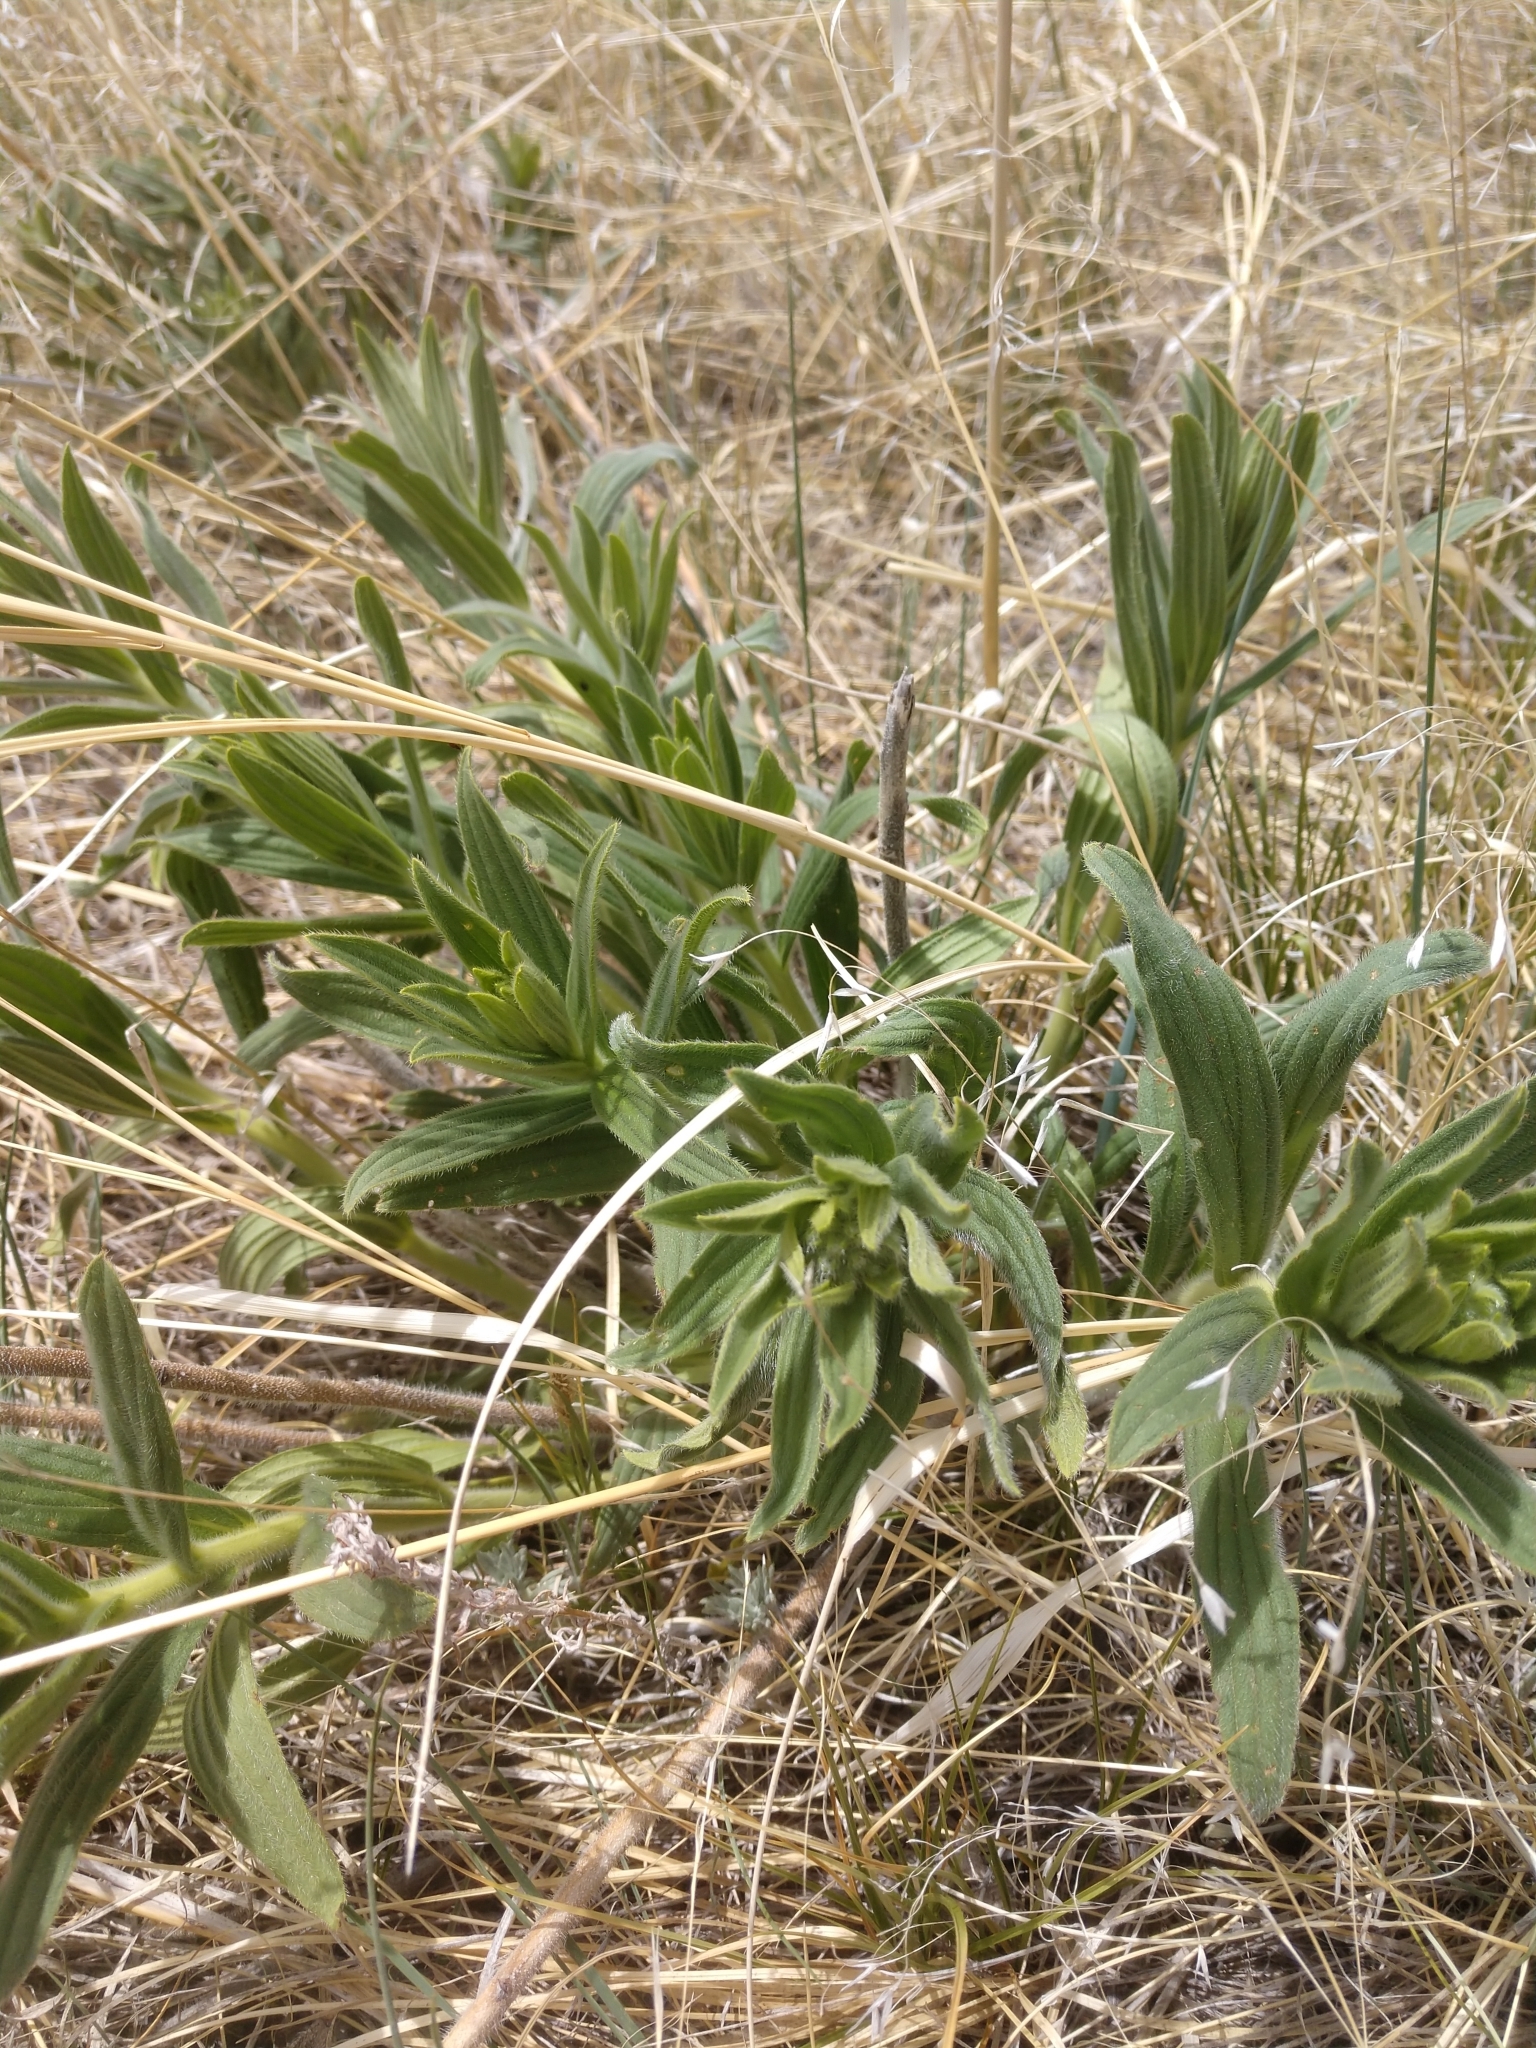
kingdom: Plantae
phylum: Tracheophyta
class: Magnoliopsida
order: Boraginales
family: Boraginaceae
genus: Lithospermum
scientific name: Lithospermum occidentale
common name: Western false gromwell
